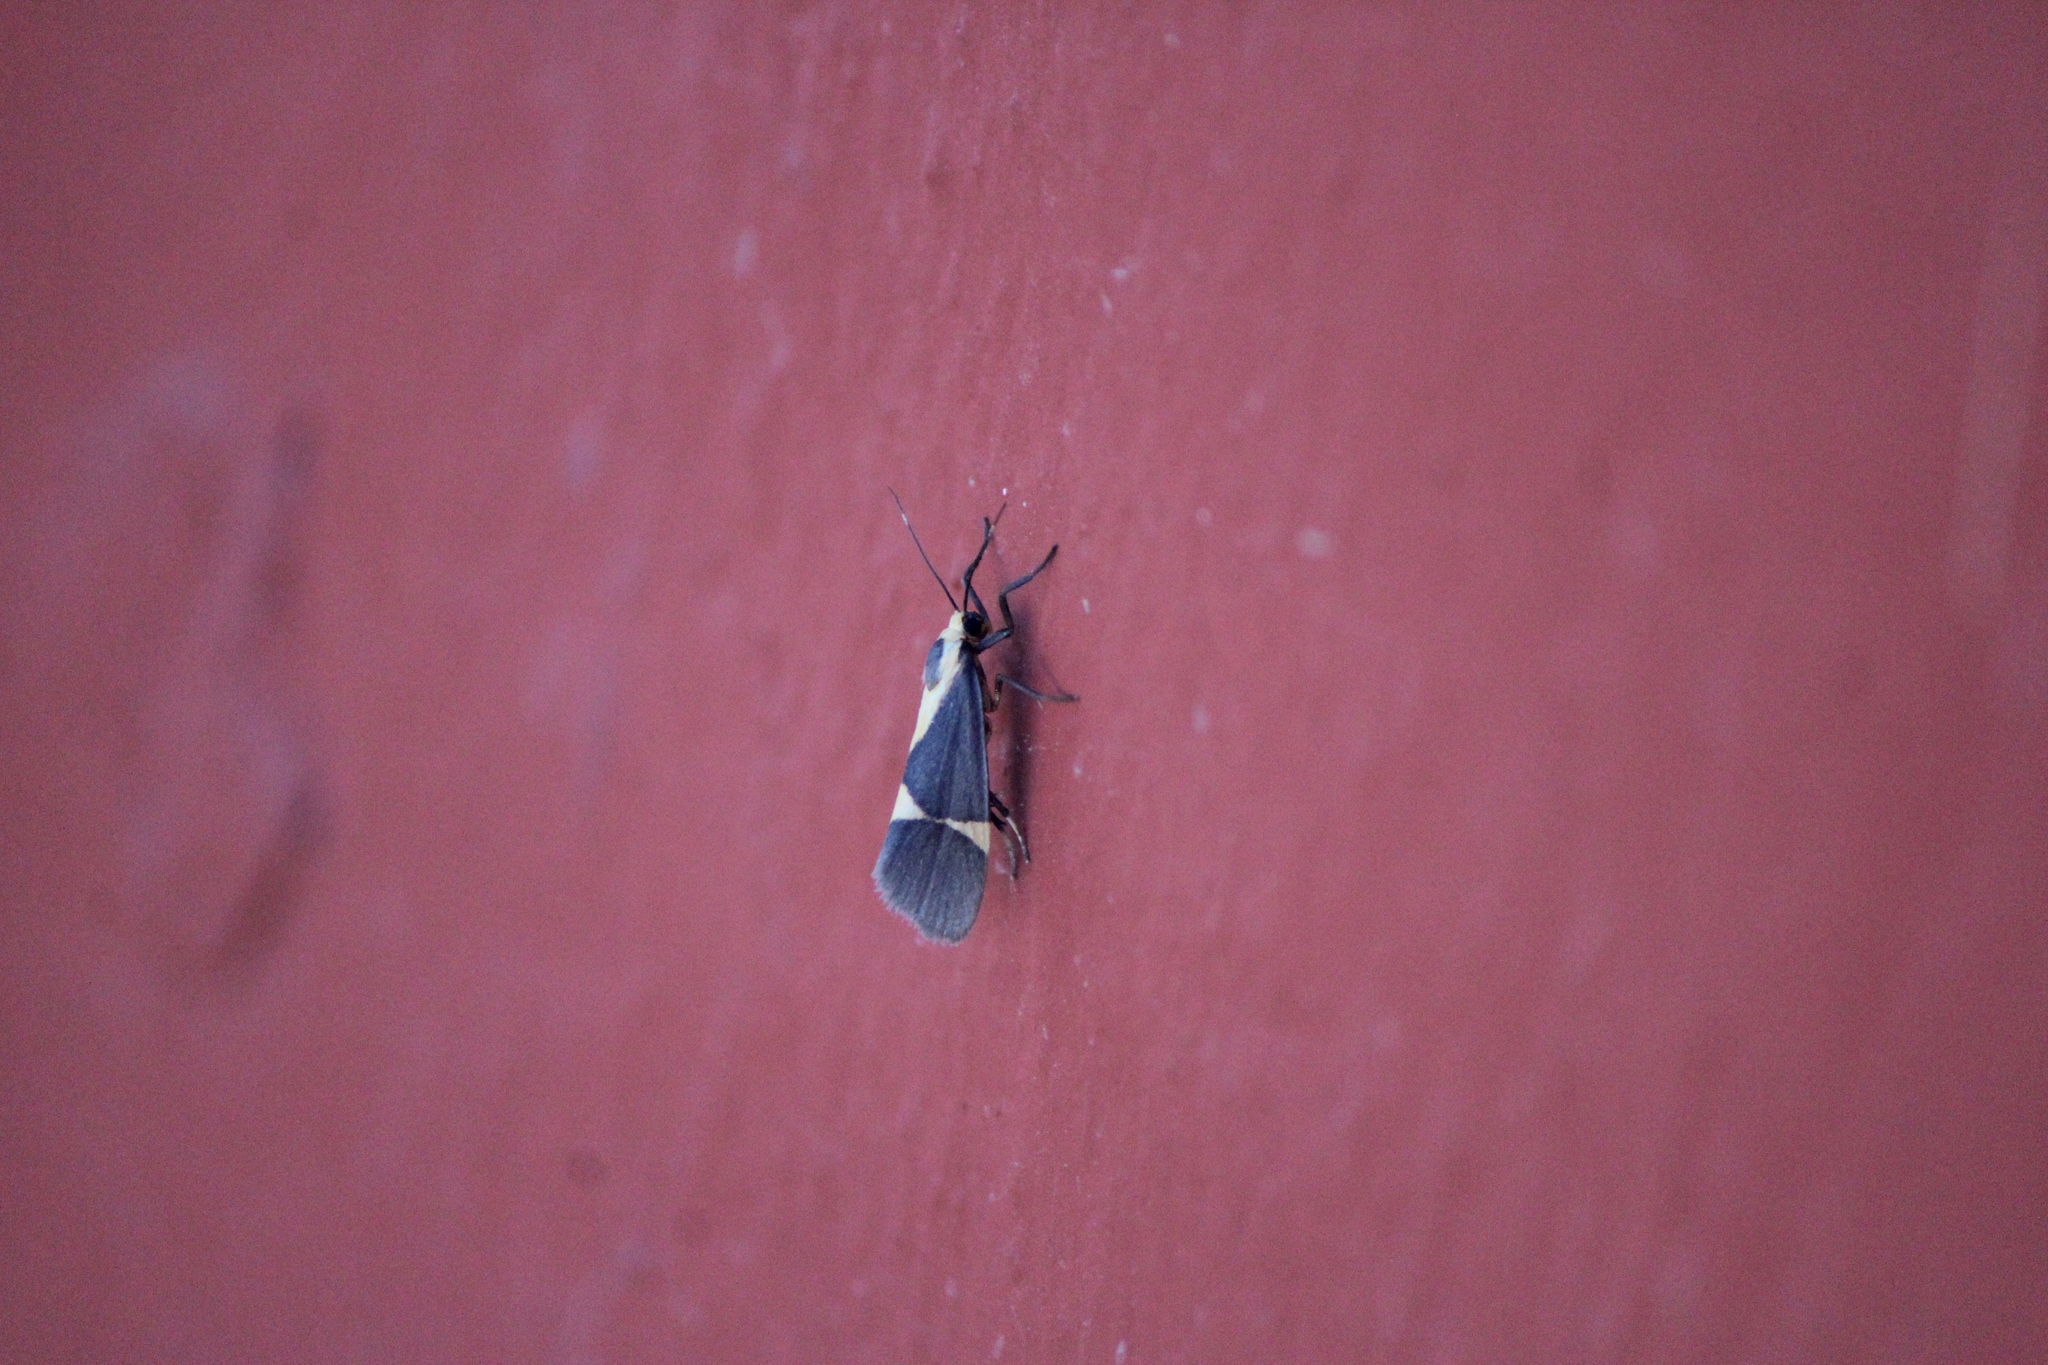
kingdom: Animalia
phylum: Arthropoda
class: Insecta
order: Lepidoptera
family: Erebidae
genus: Cisthene
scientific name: Cisthene subrufa
